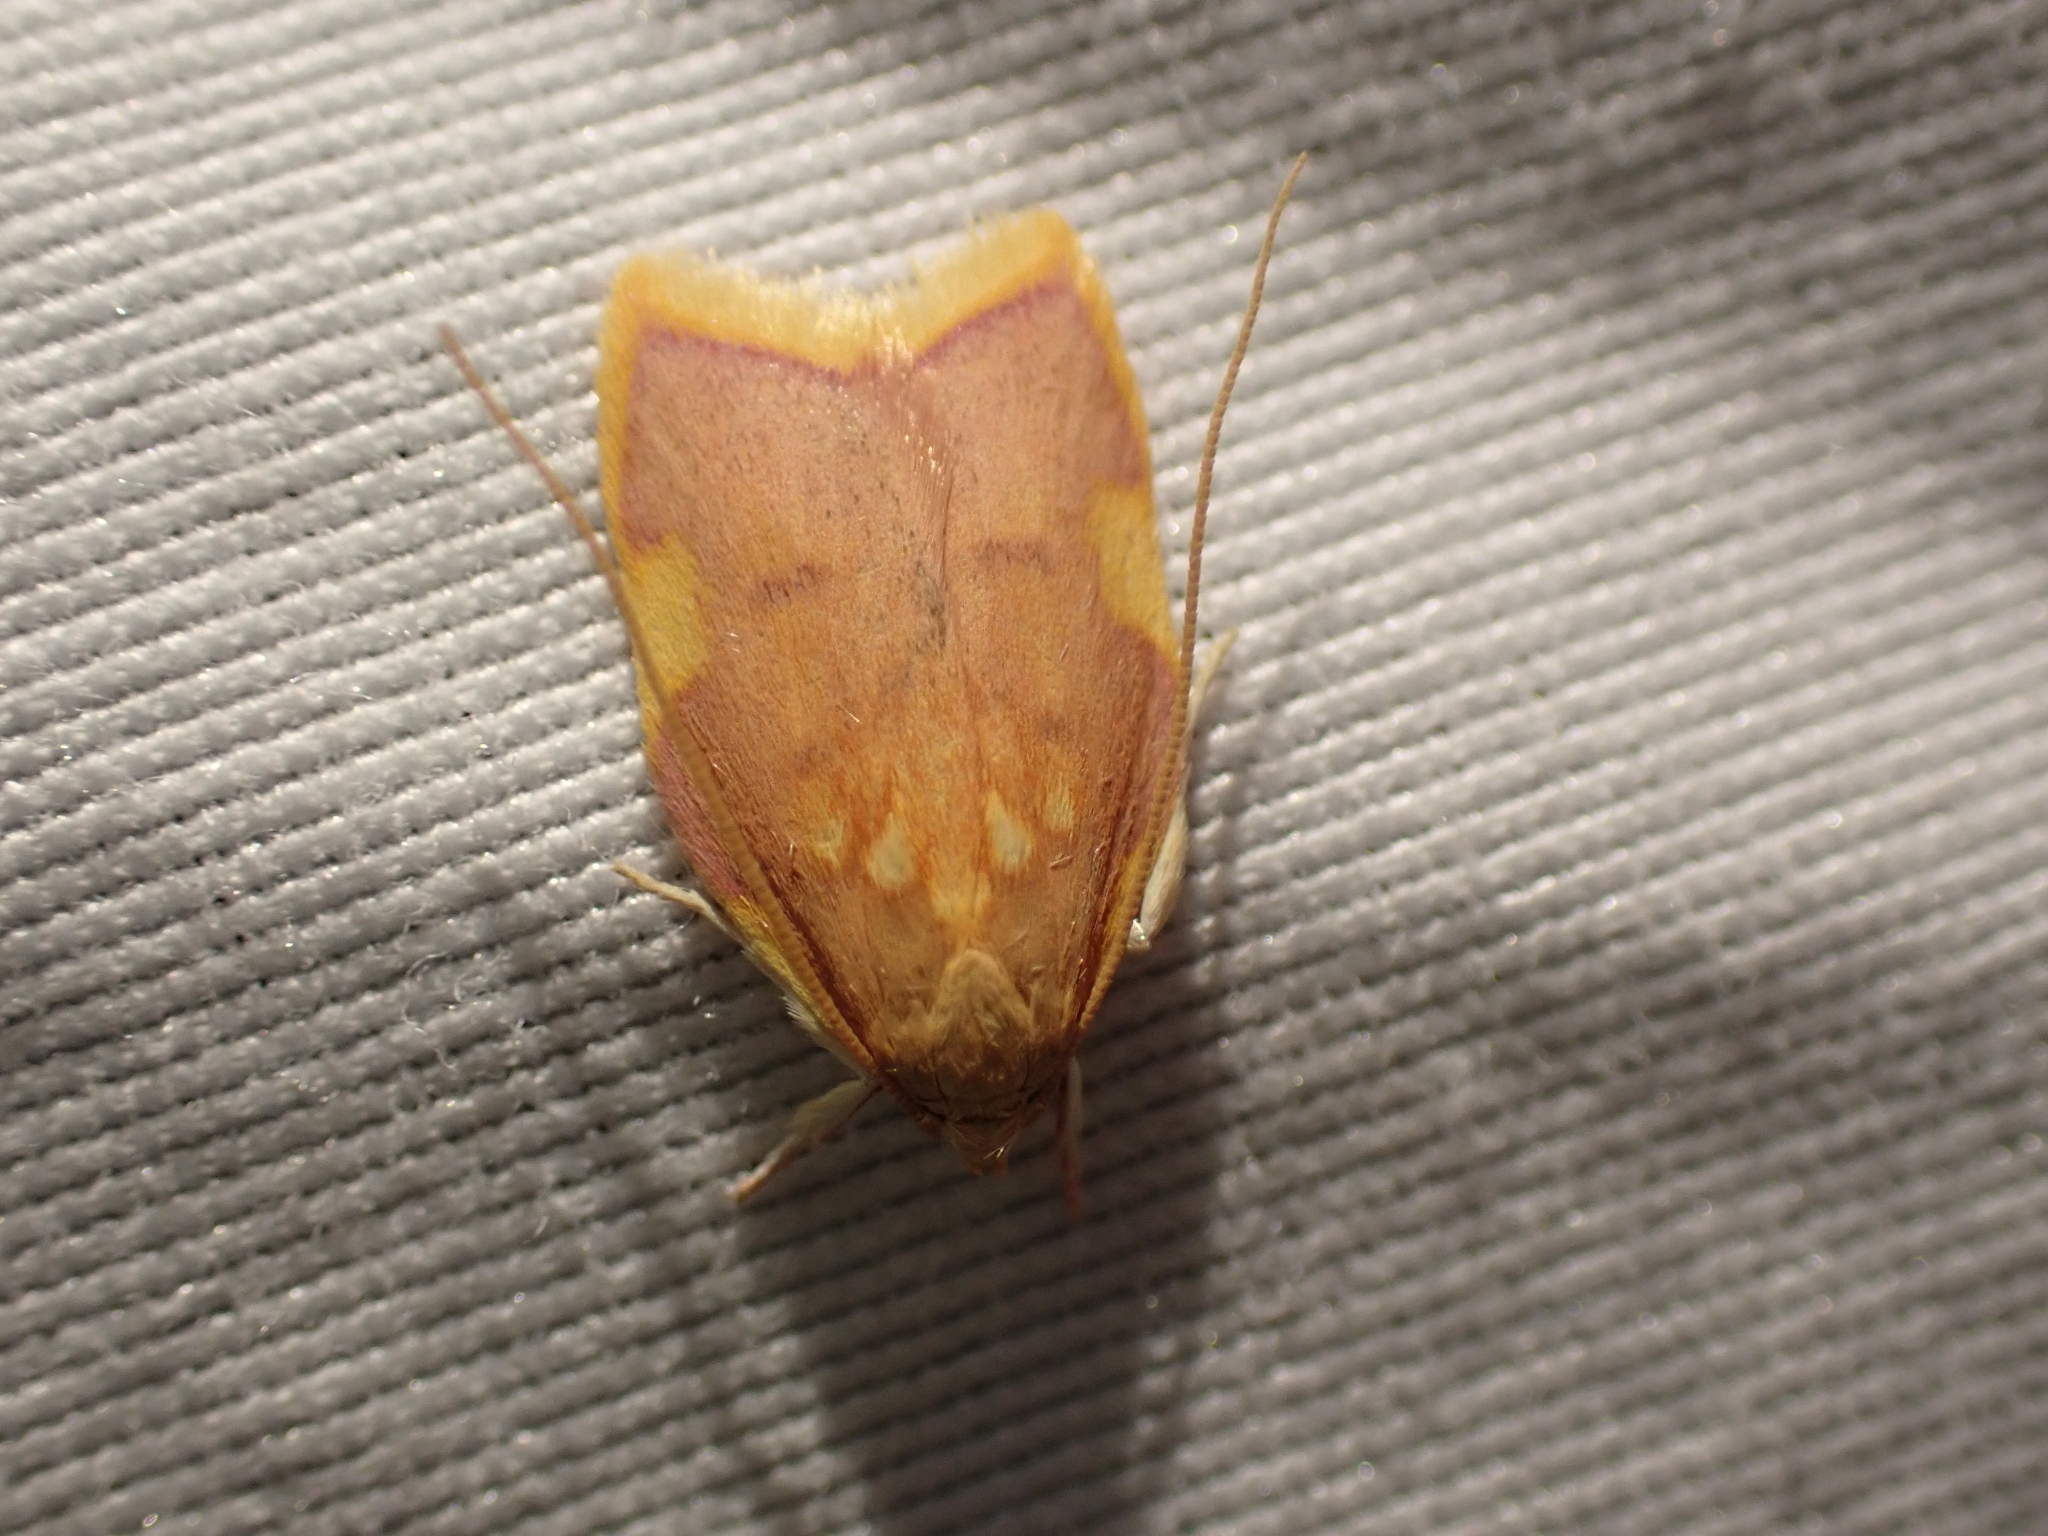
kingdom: Animalia
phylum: Arthropoda
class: Insecta
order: Lepidoptera
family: Peleopodidae
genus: Carcina
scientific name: Carcina quercana
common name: Moth
